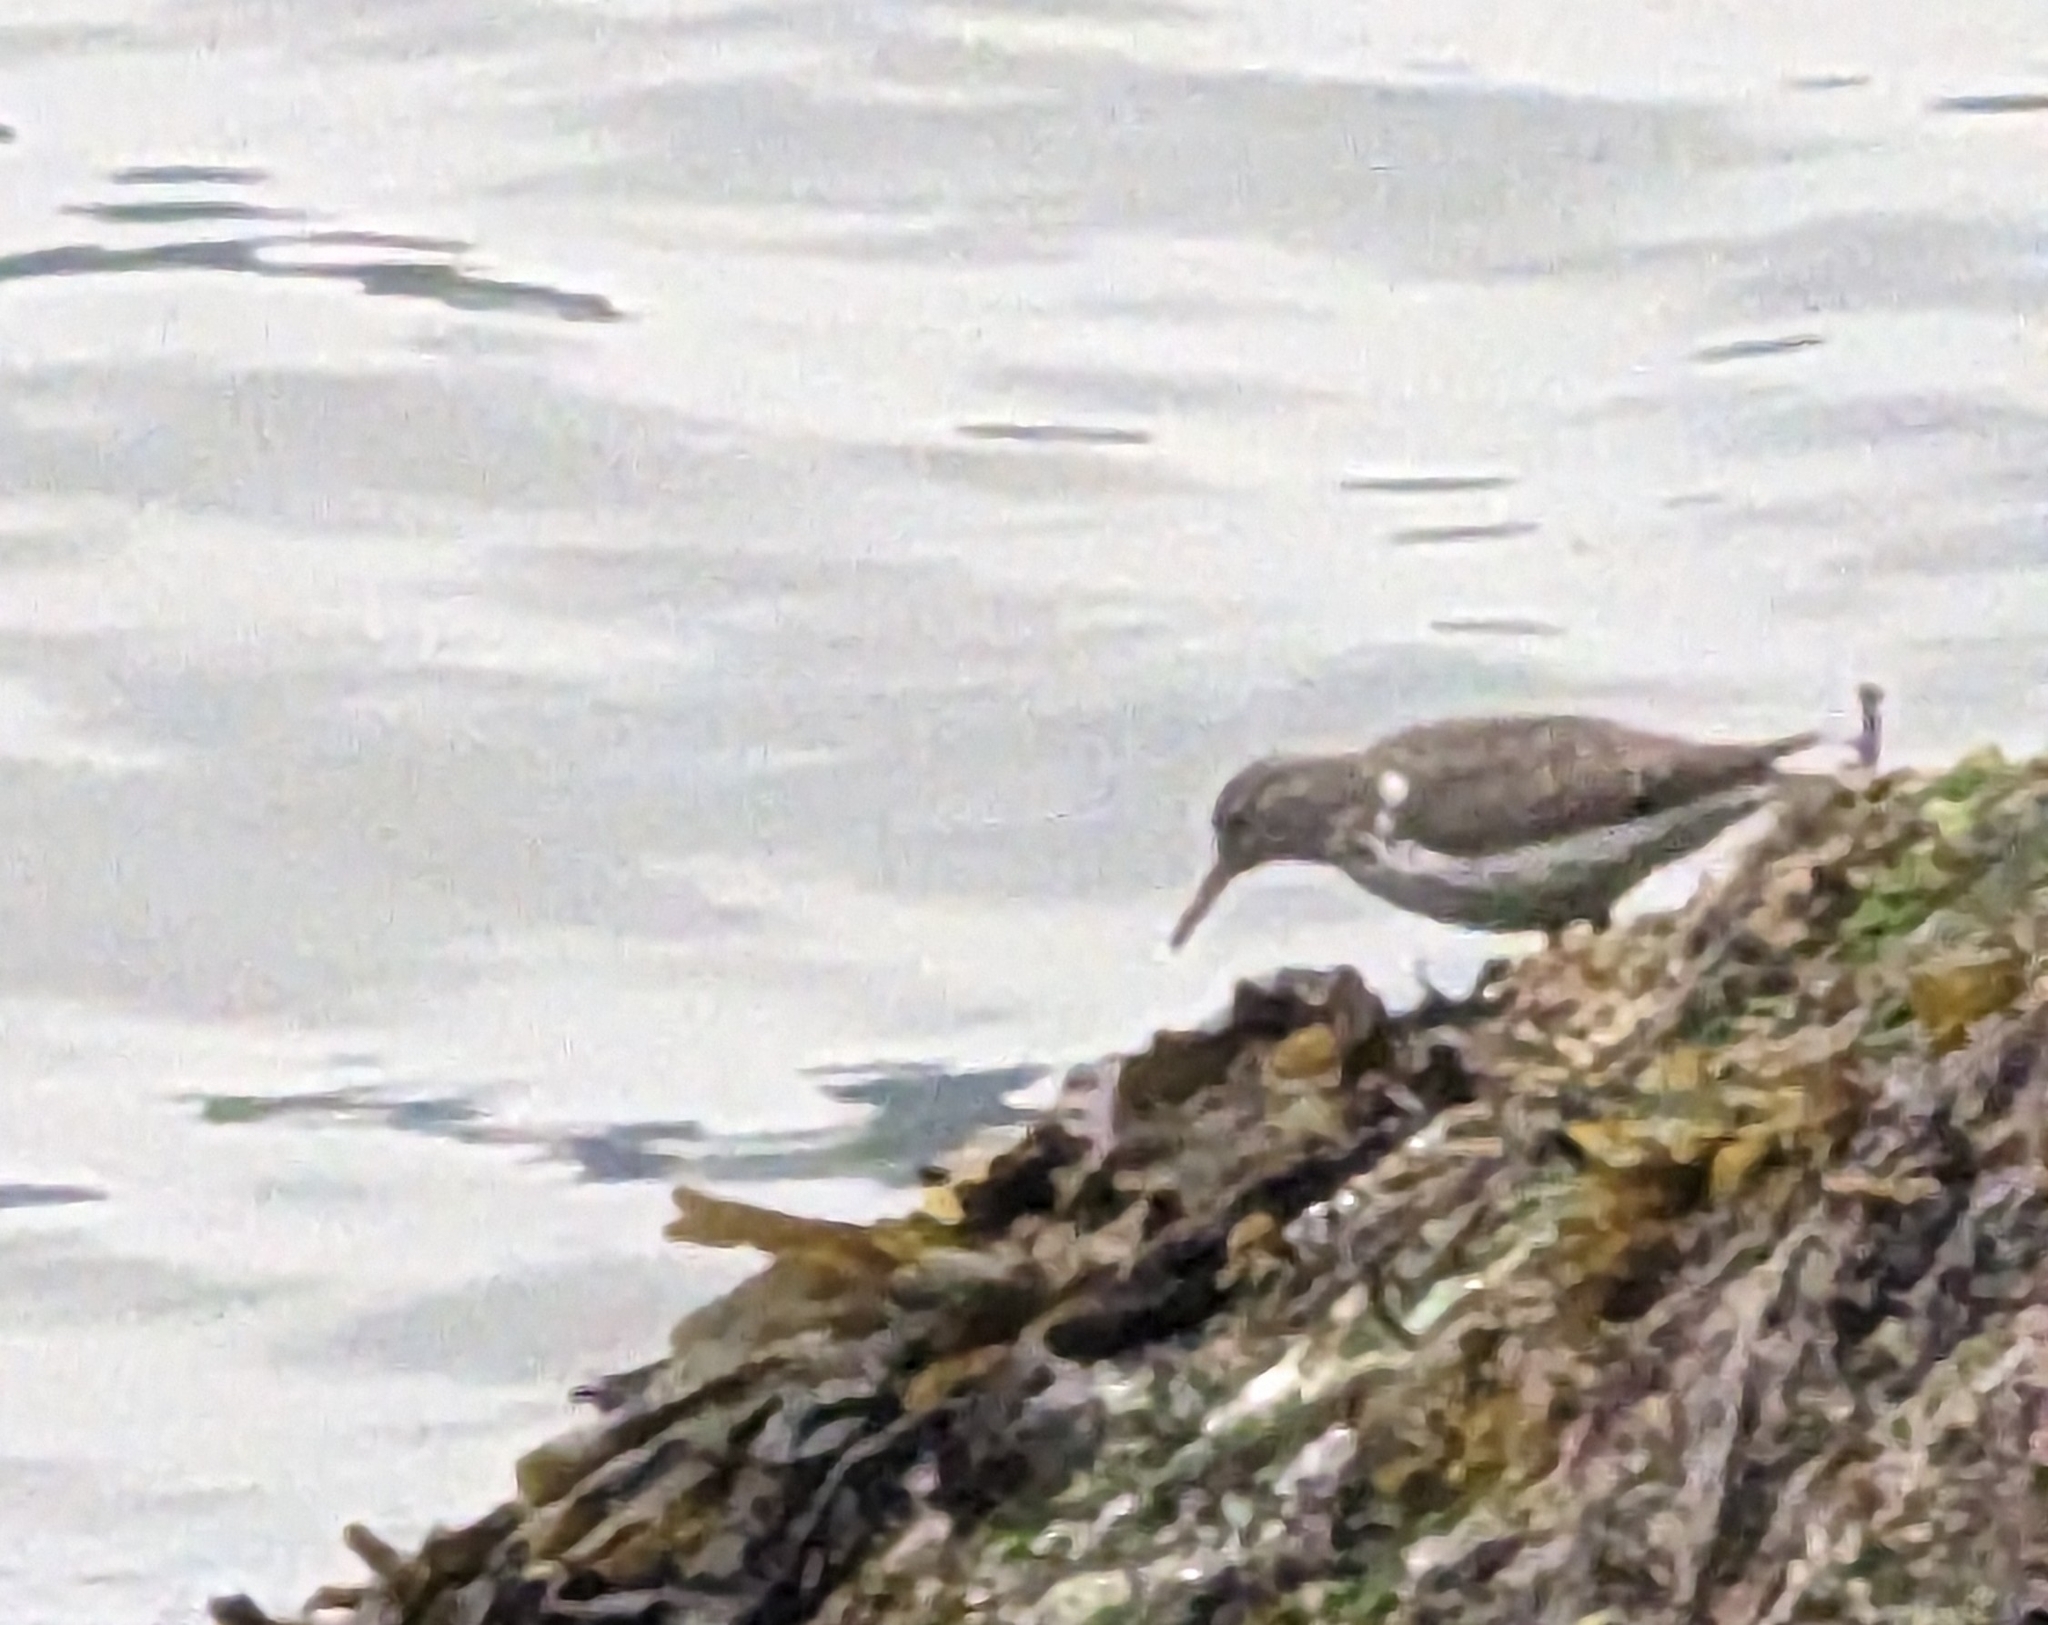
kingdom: Animalia
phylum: Chordata
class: Aves
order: Charadriiformes
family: Scolopacidae
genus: Actitis
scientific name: Actitis macularius
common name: Spotted sandpiper
